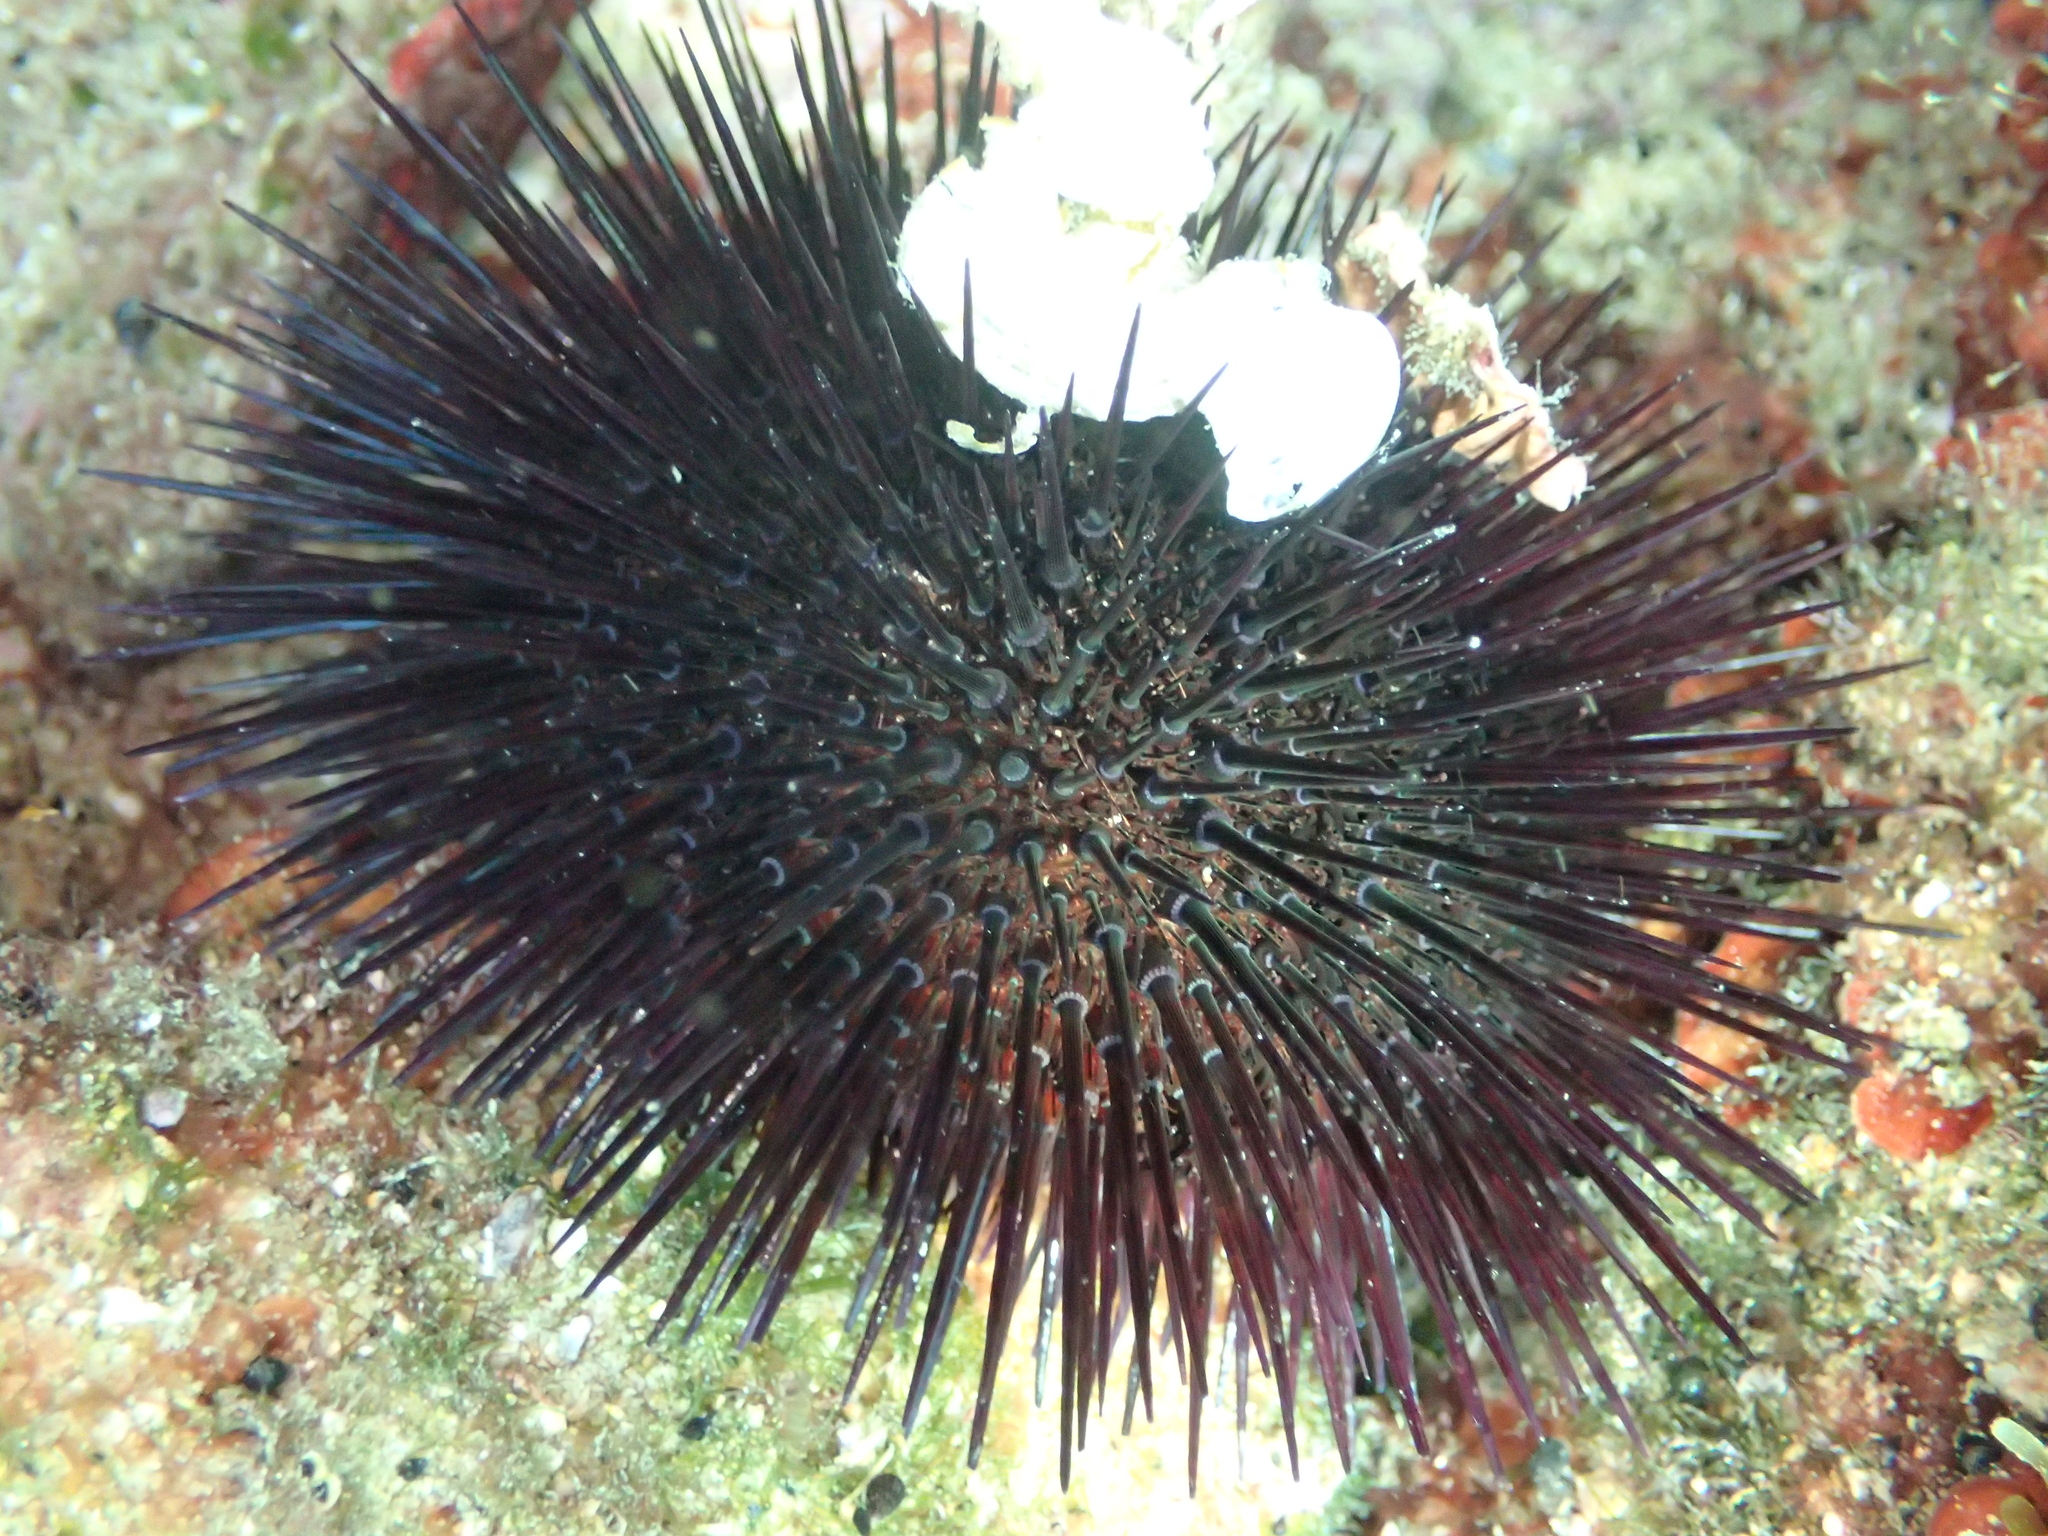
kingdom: Animalia
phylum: Echinodermata
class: Echinoidea
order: Camarodonta
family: Parechinidae
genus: Paracentrotus
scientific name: Paracentrotus lividus
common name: Purple sea urchin
